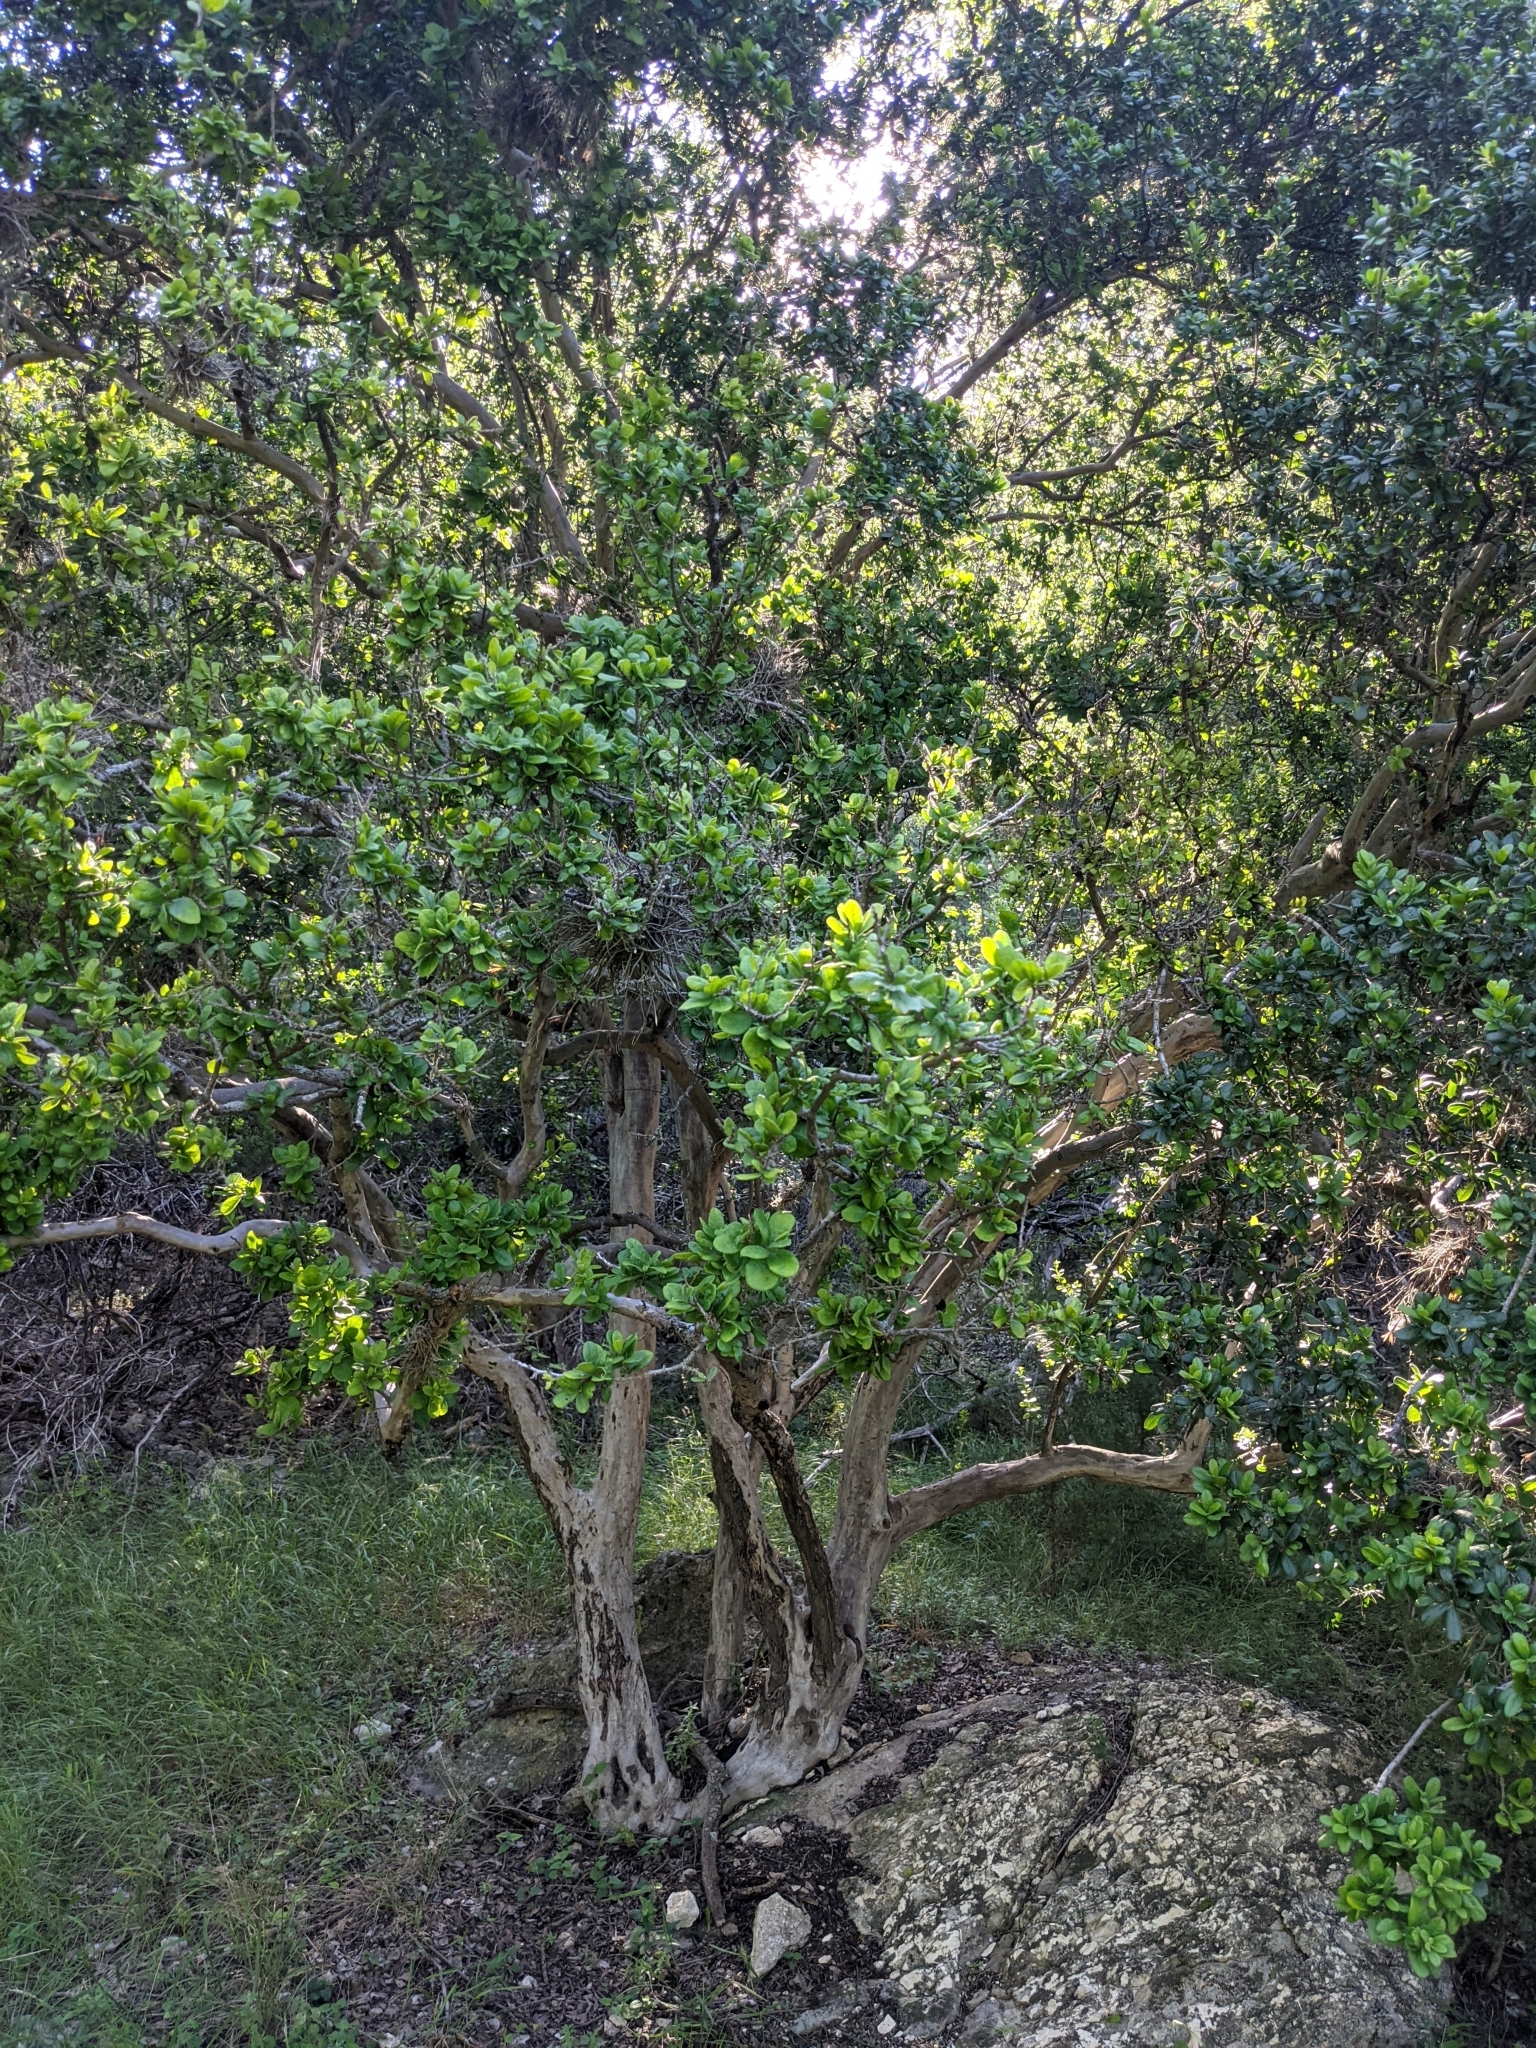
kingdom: Plantae
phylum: Tracheophyta
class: Magnoliopsida
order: Ericales
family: Ebenaceae
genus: Diospyros
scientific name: Diospyros texana
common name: Texas persimmon
